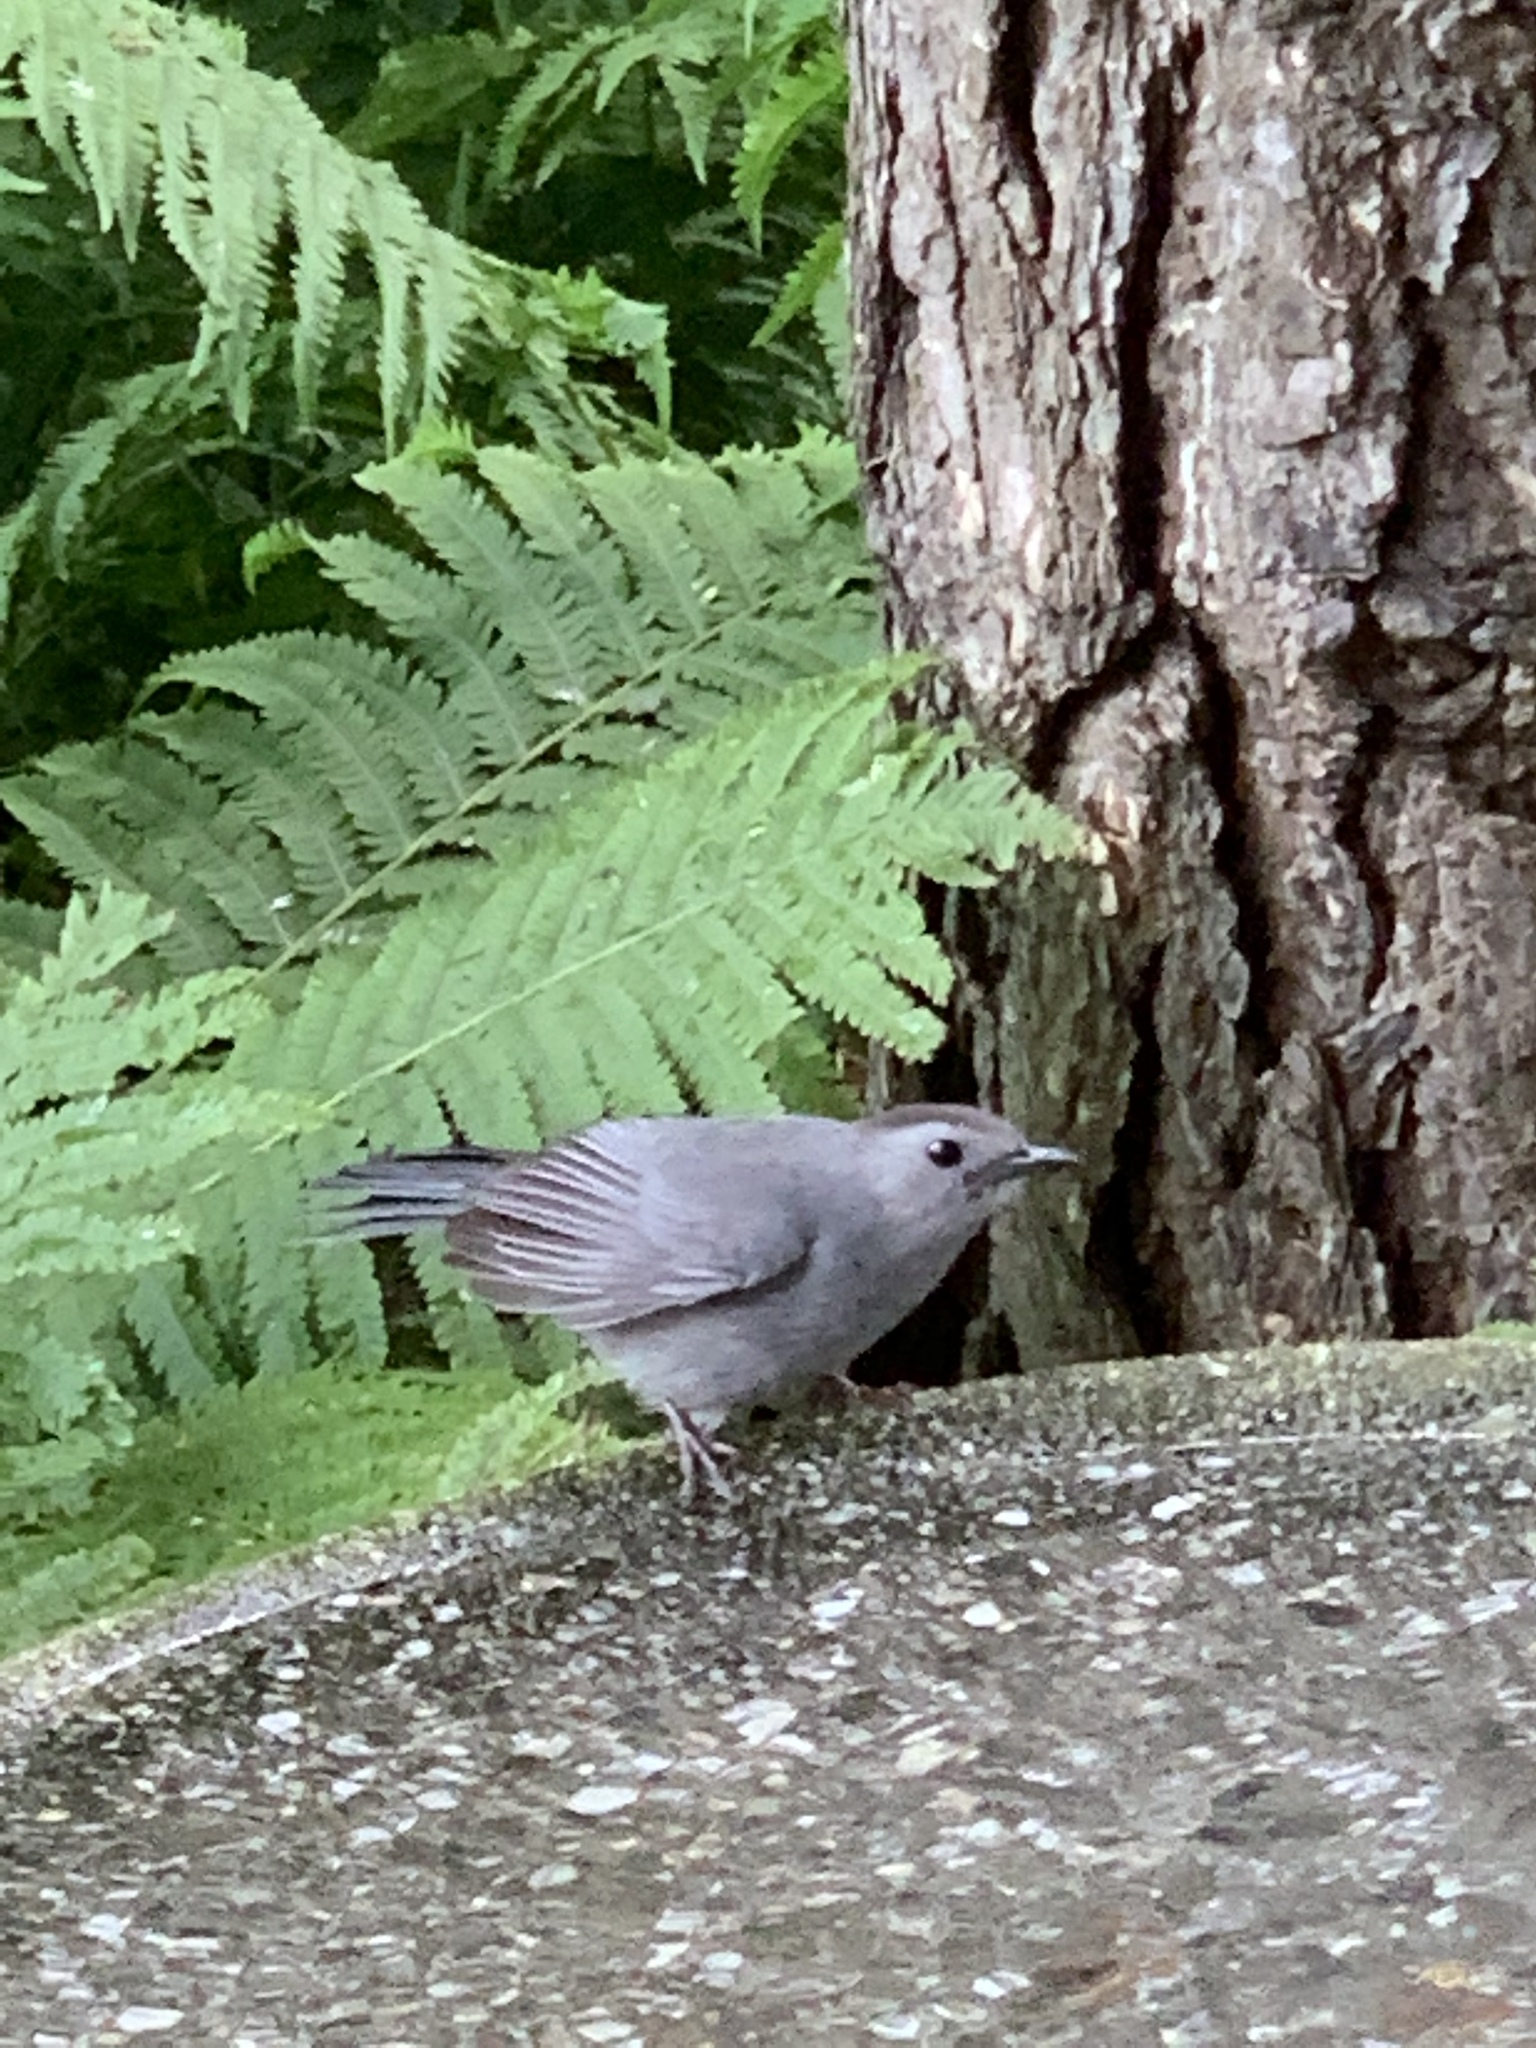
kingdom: Animalia
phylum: Chordata
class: Aves
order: Passeriformes
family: Mimidae
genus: Dumetella
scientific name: Dumetella carolinensis
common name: Gray catbird
